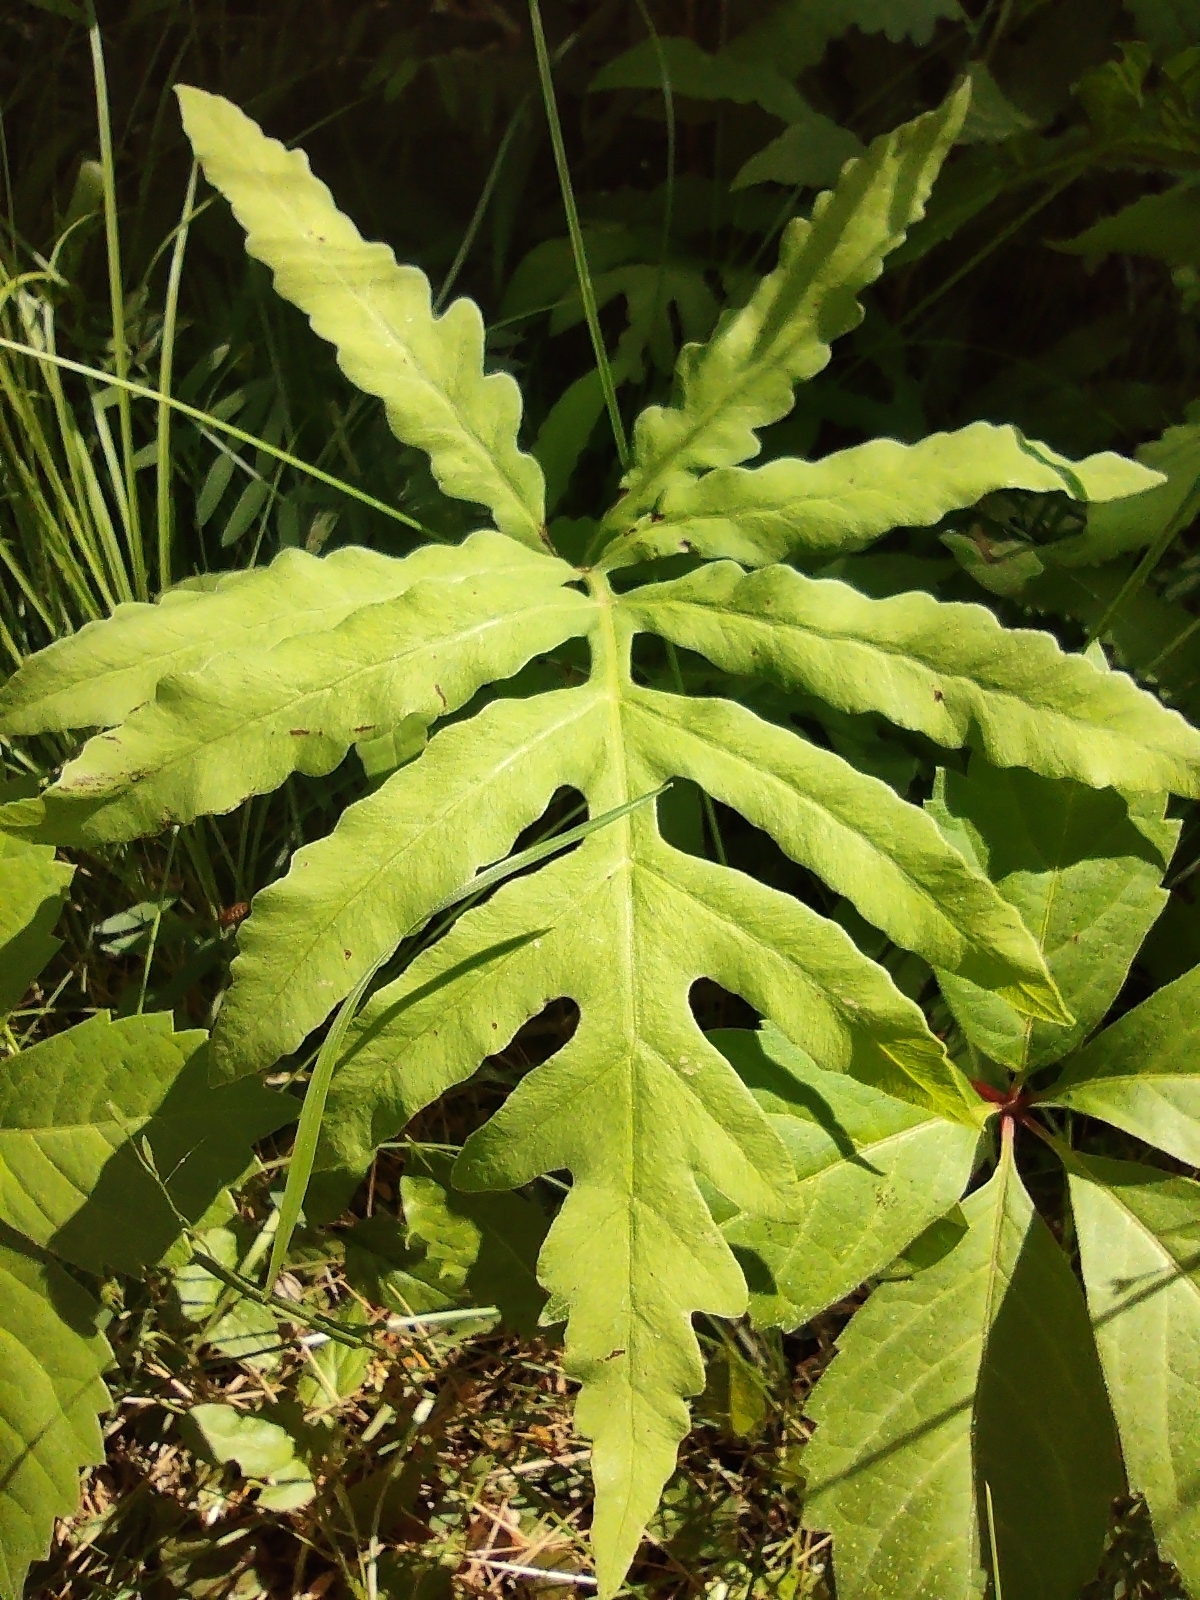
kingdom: Plantae
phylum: Tracheophyta
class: Polypodiopsida
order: Polypodiales
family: Onocleaceae
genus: Onoclea
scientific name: Onoclea sensibilis
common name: Sensitive fern
